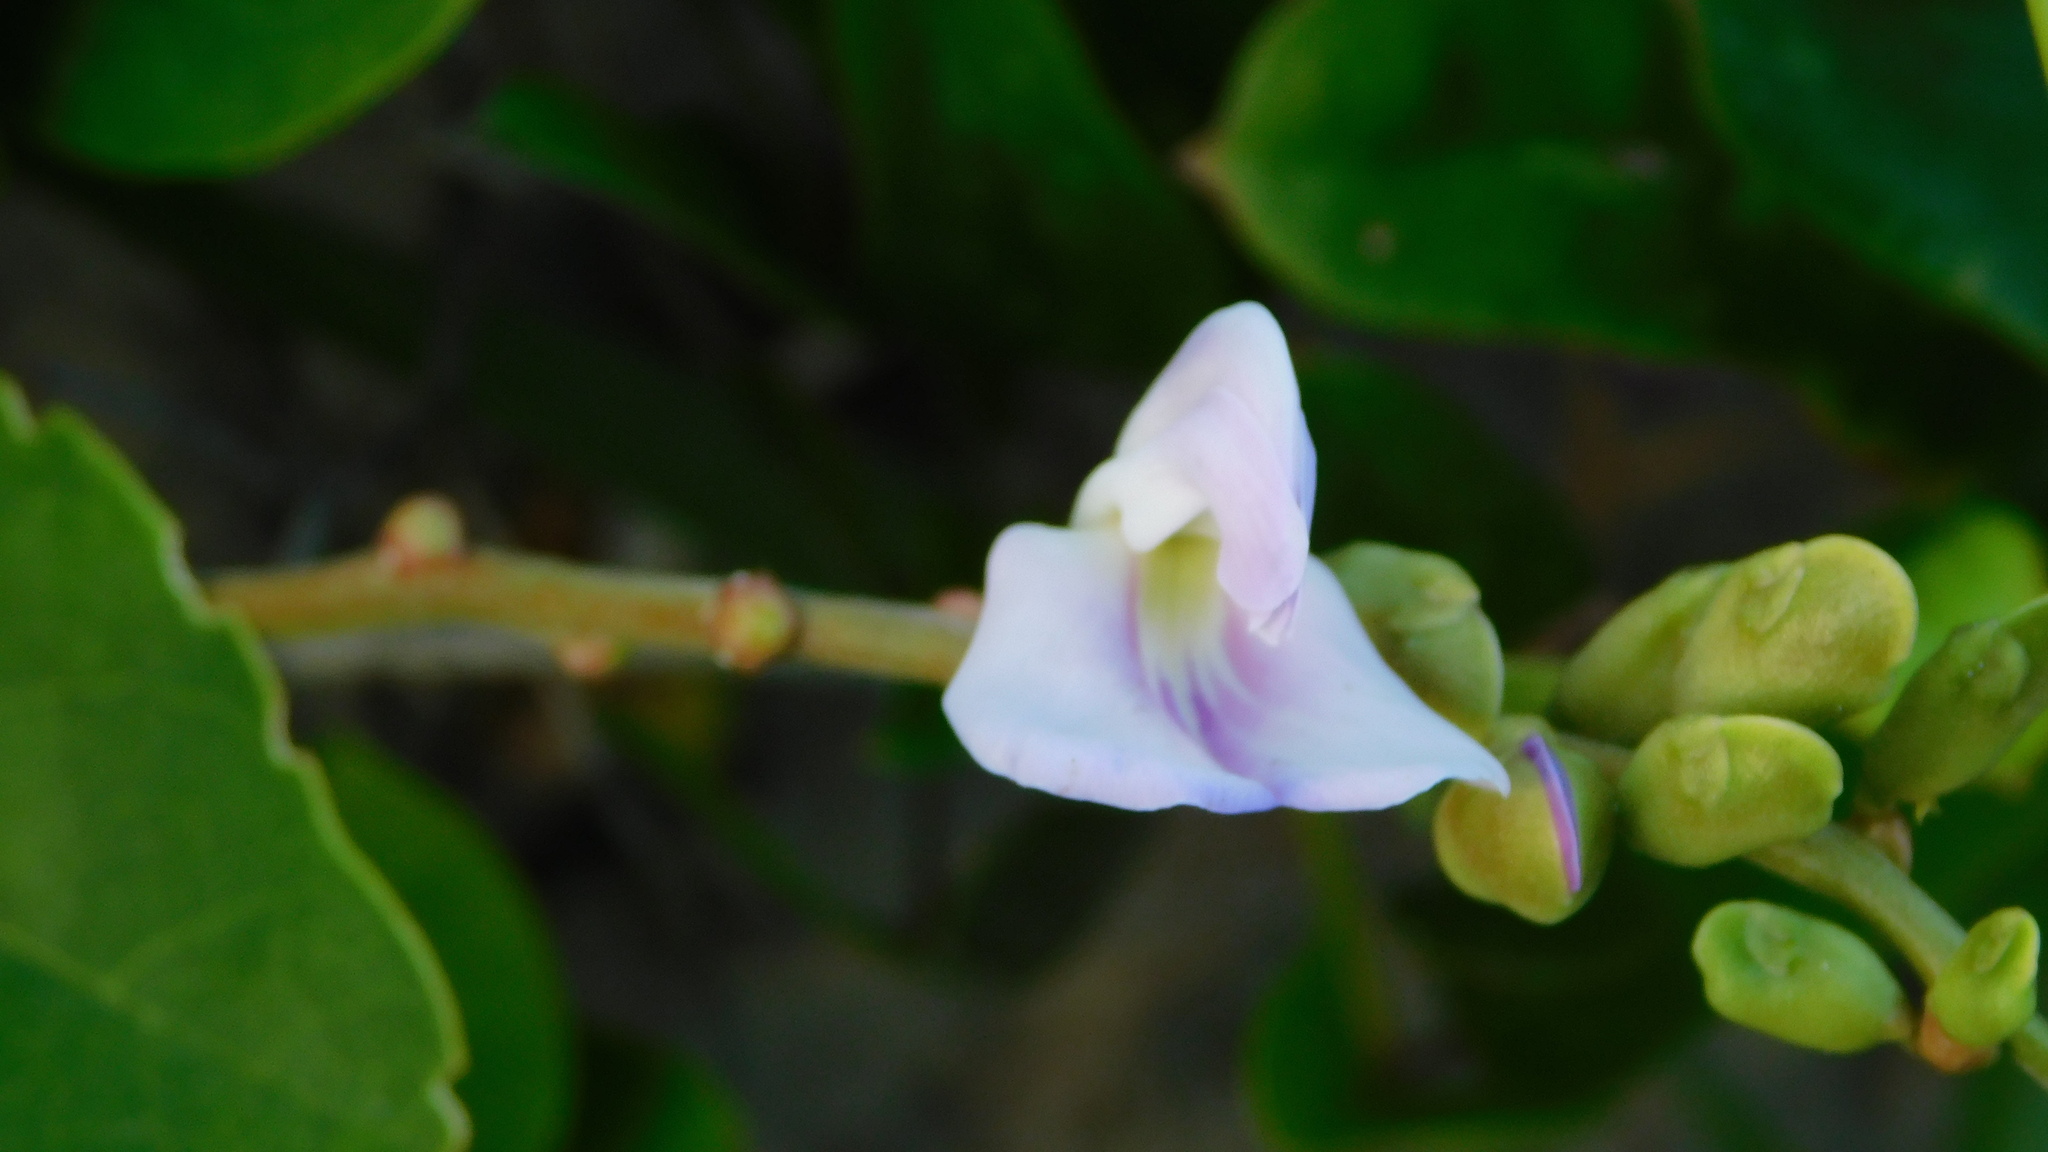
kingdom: Plantae
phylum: Tracheophyta
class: Magnoliopsida
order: Fabales
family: Fabaceae
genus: Canavalia
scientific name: Canavalia rosea
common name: Beach-bean
